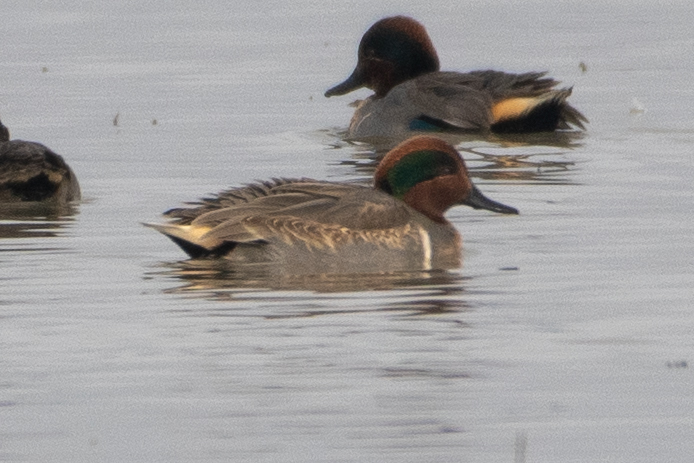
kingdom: Animalia
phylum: Chordata
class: Aves
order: Anseriformes
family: Anatidae
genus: Anas
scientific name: Anas crecca
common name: Eurasian teal
